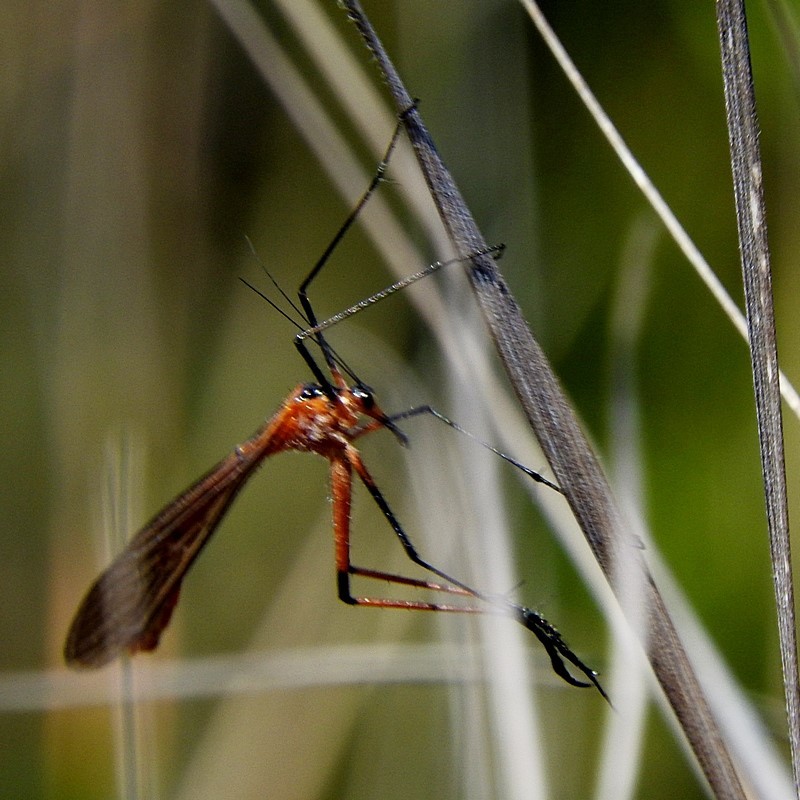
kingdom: Animalia
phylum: Arthropoda
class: Insecta
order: Mecoptera
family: Bittacidae
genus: Harpobittacus
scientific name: Harpobittacus australis
